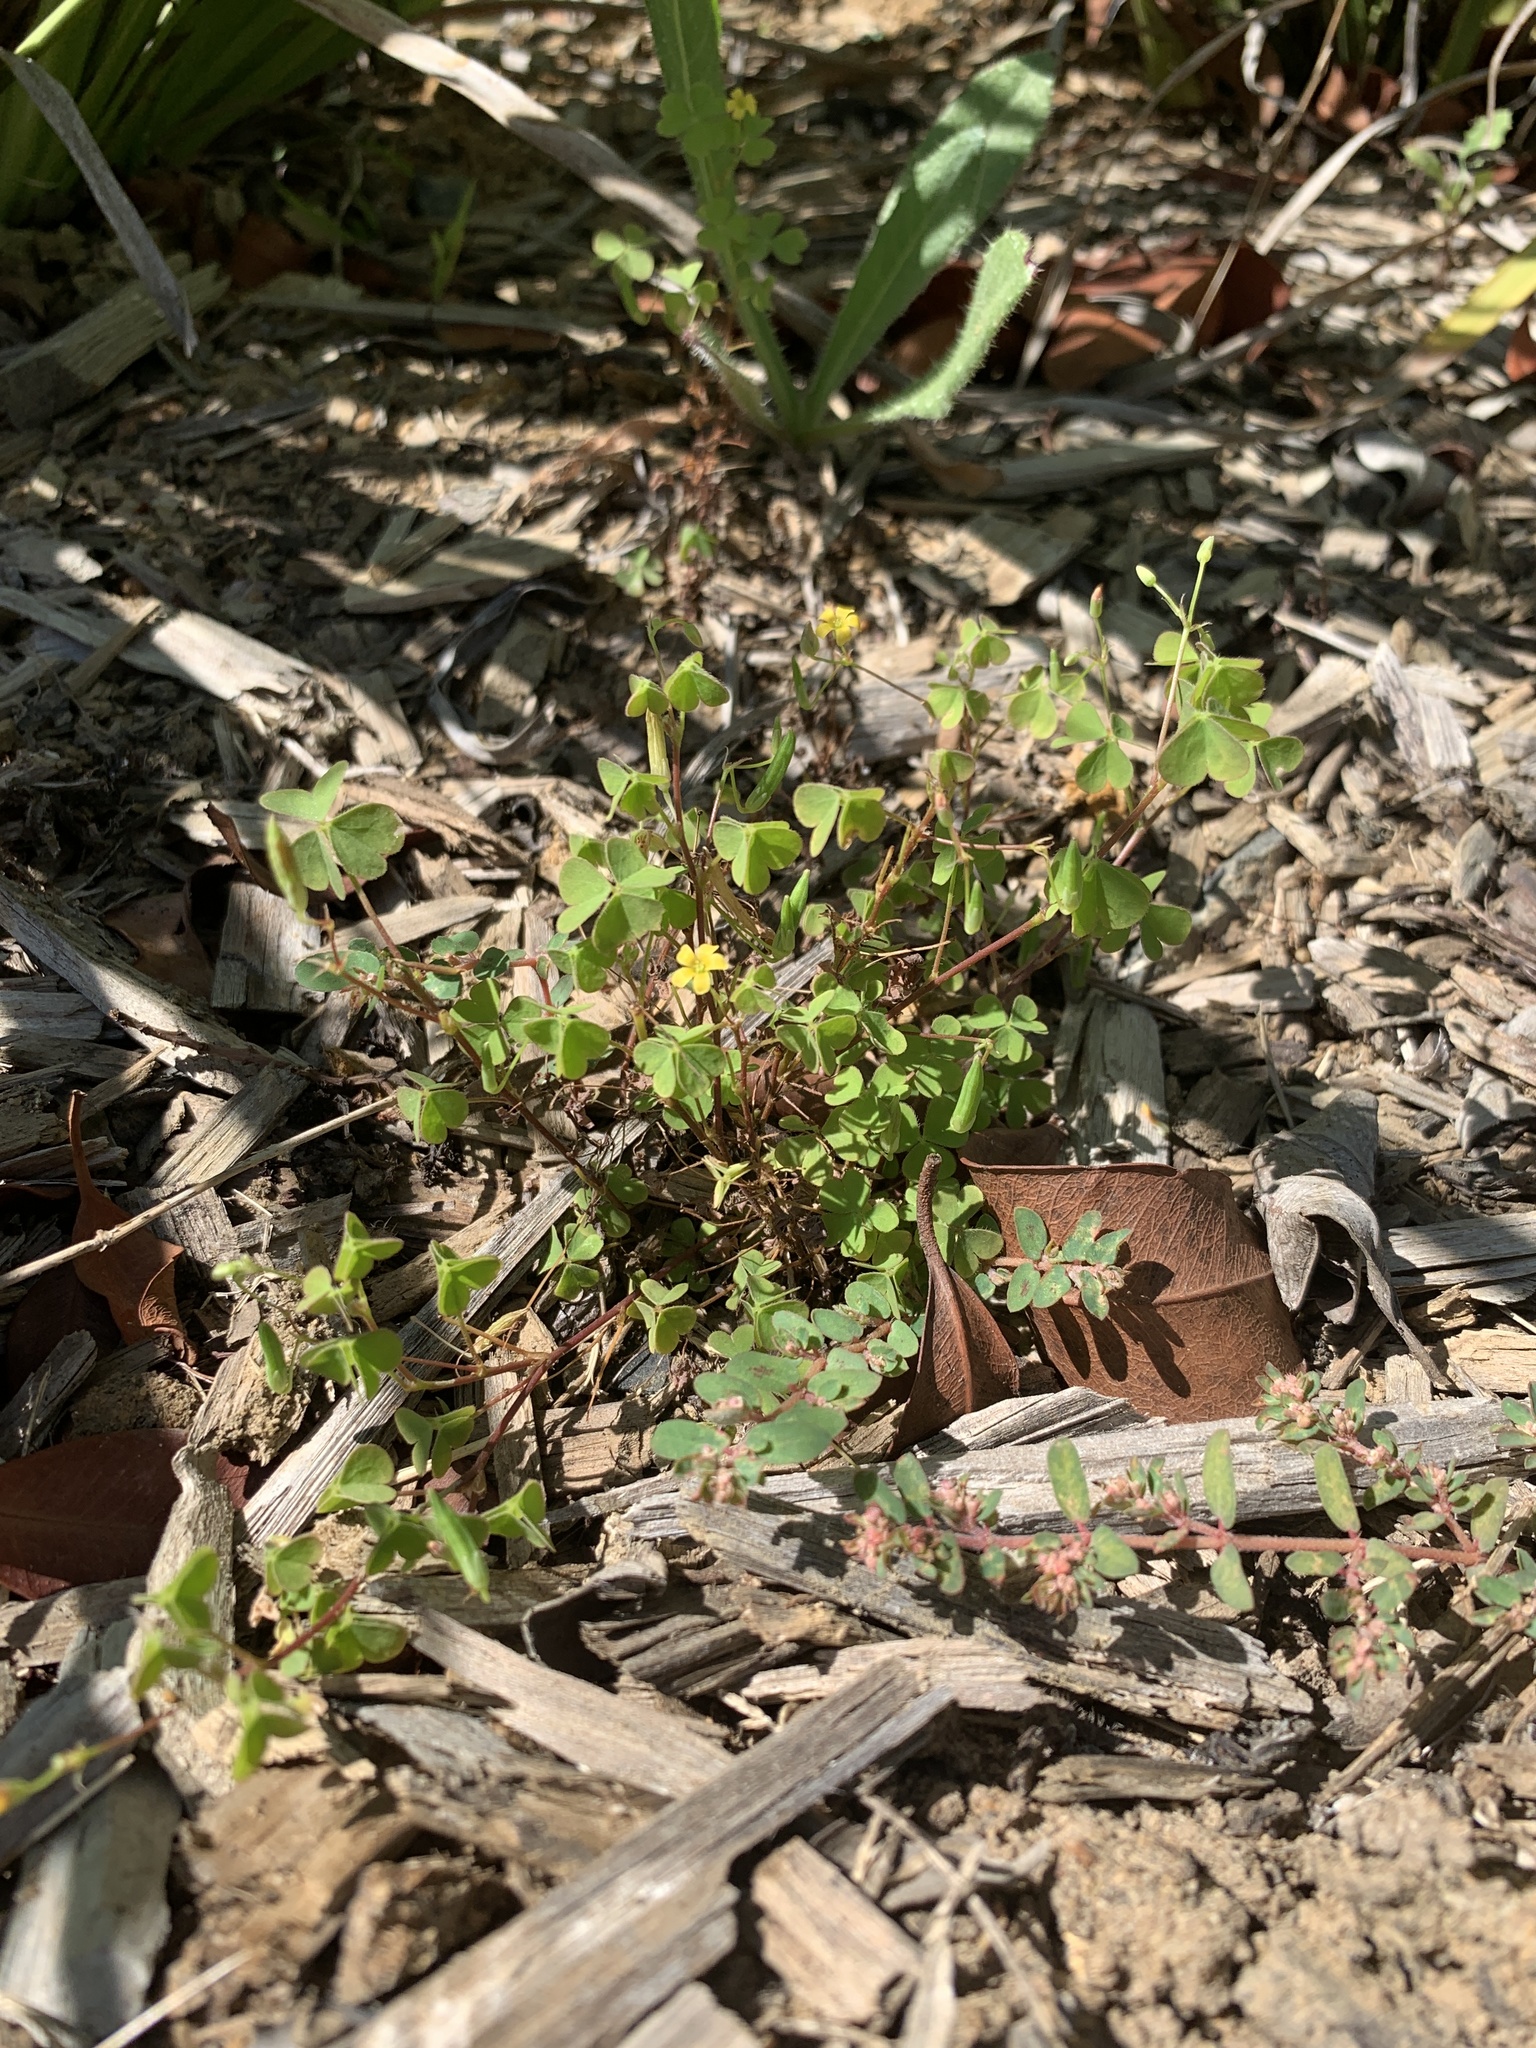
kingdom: Plantae
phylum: Tracheophyta
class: Magnoliopsida
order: Oxalidales
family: Oxalidaceae
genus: Oxalis
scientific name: Oxalis corniculata
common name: Procumbent yellow-sorrel
